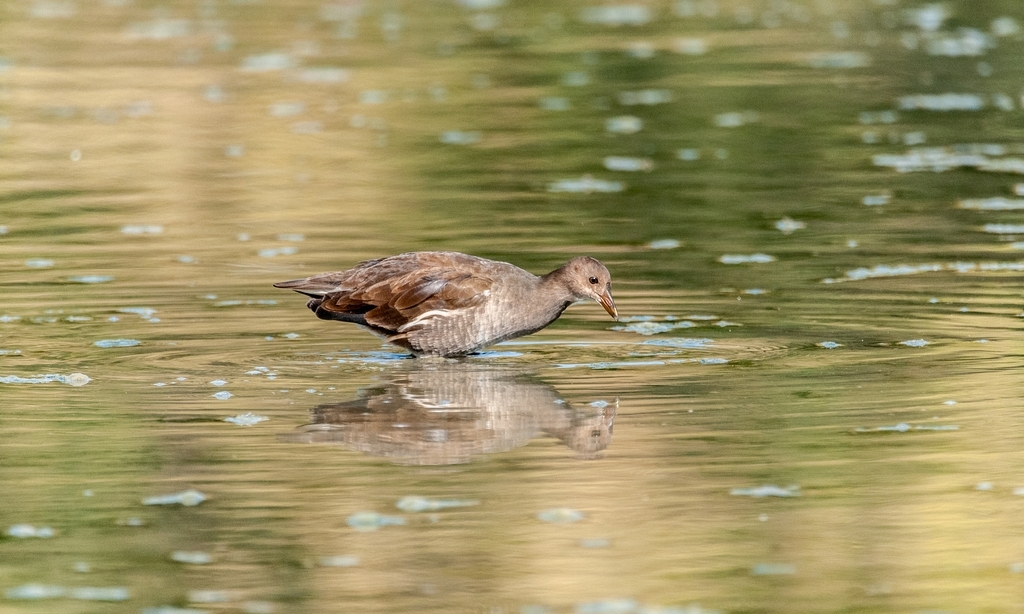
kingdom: Animalia
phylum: Chordata
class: Aves
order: Gruiformes
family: Rallidae
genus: Gallinula
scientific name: Gallinula chloropus
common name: Common moorhen
